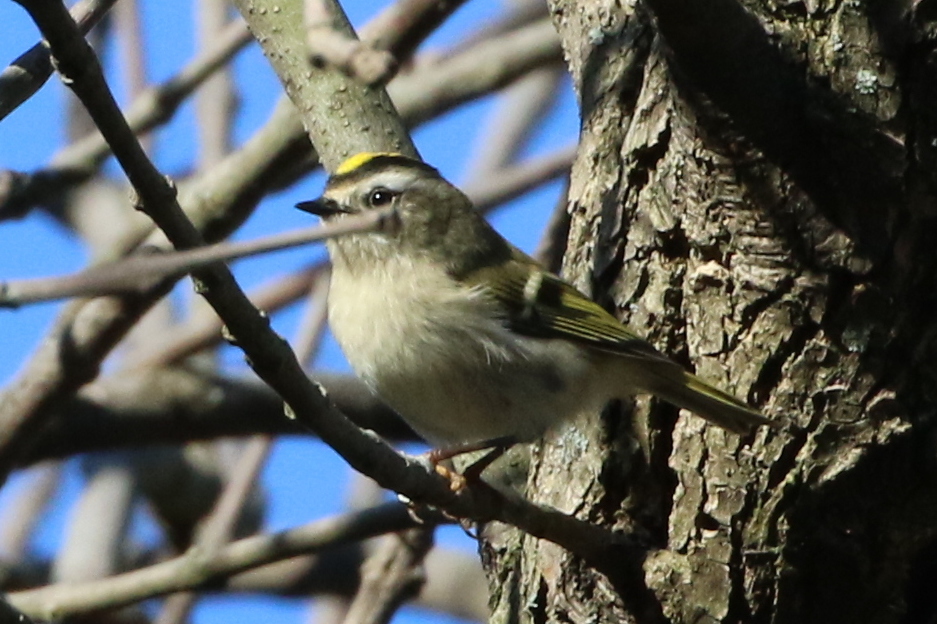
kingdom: Animalia
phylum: Chordata
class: Aves
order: Passeriformes
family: Regulidae
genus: Regulus
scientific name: Regulus satrapa
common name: Golden-crowned kinglet
